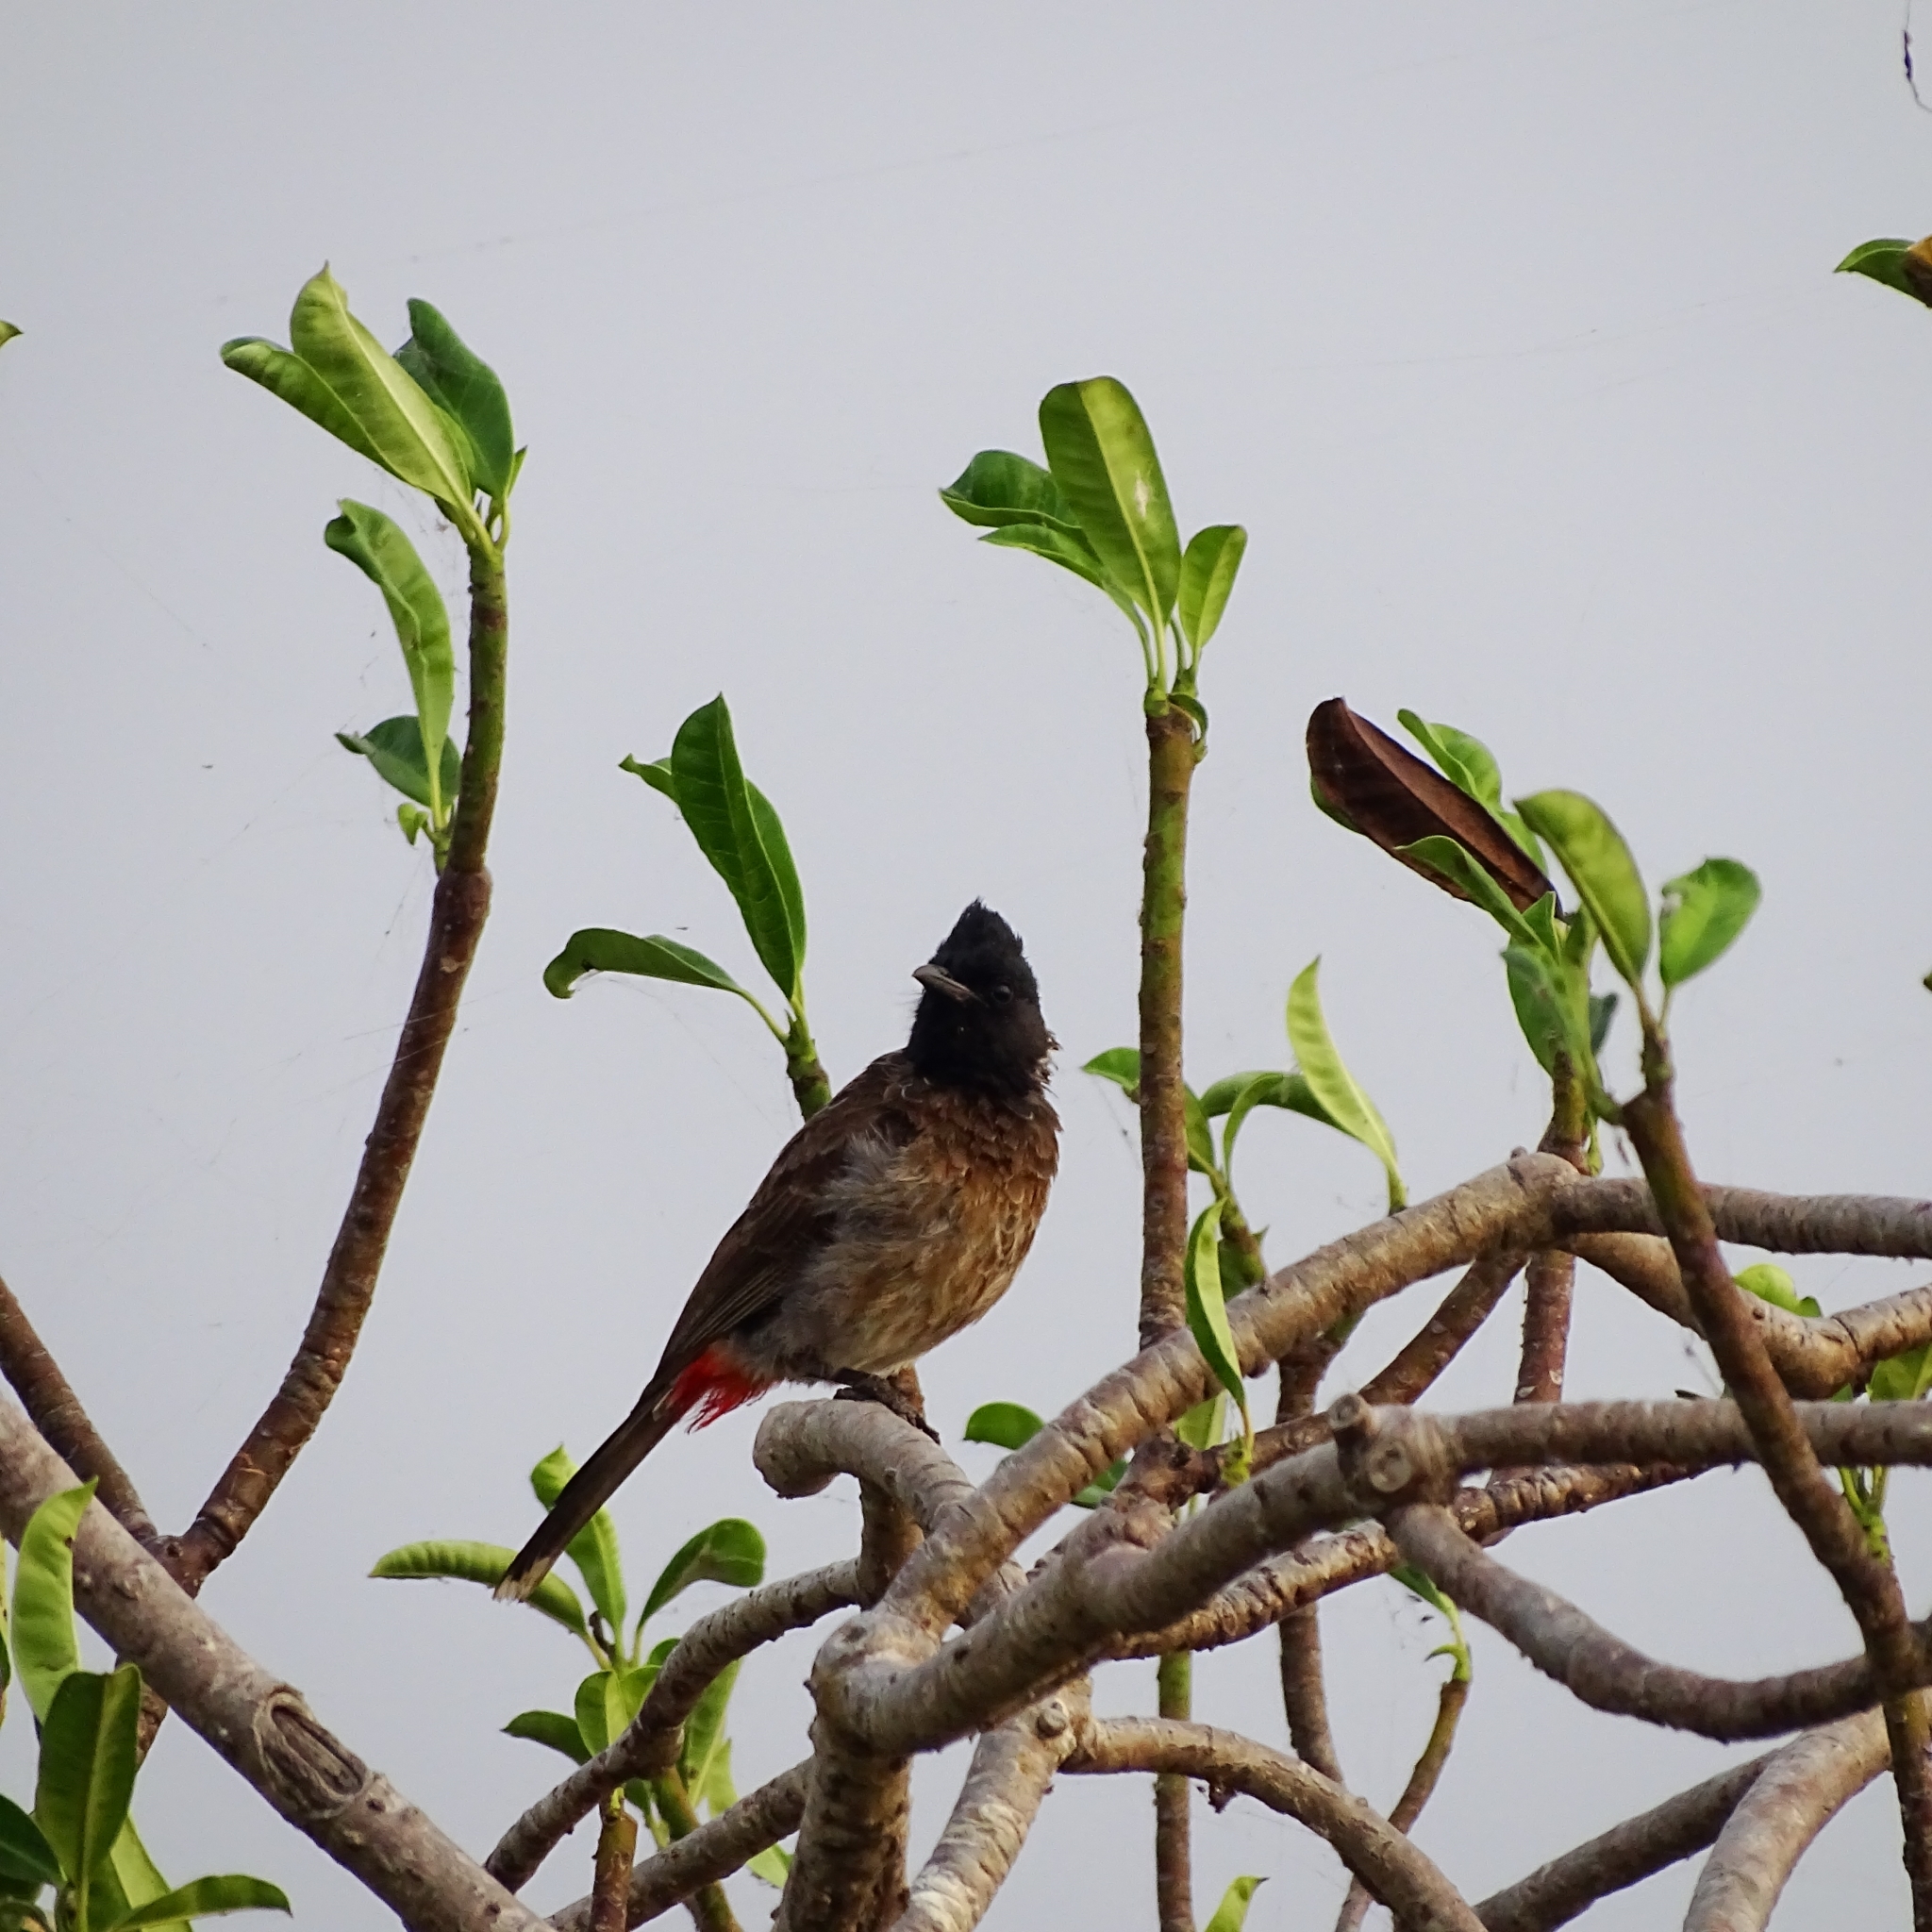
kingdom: Animalia
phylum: Chordata
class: Aves
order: Passeriformes
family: Pycnonotidae
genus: Pycnonotus
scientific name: Pycnonotus cafer
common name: Red-vented bulbul
